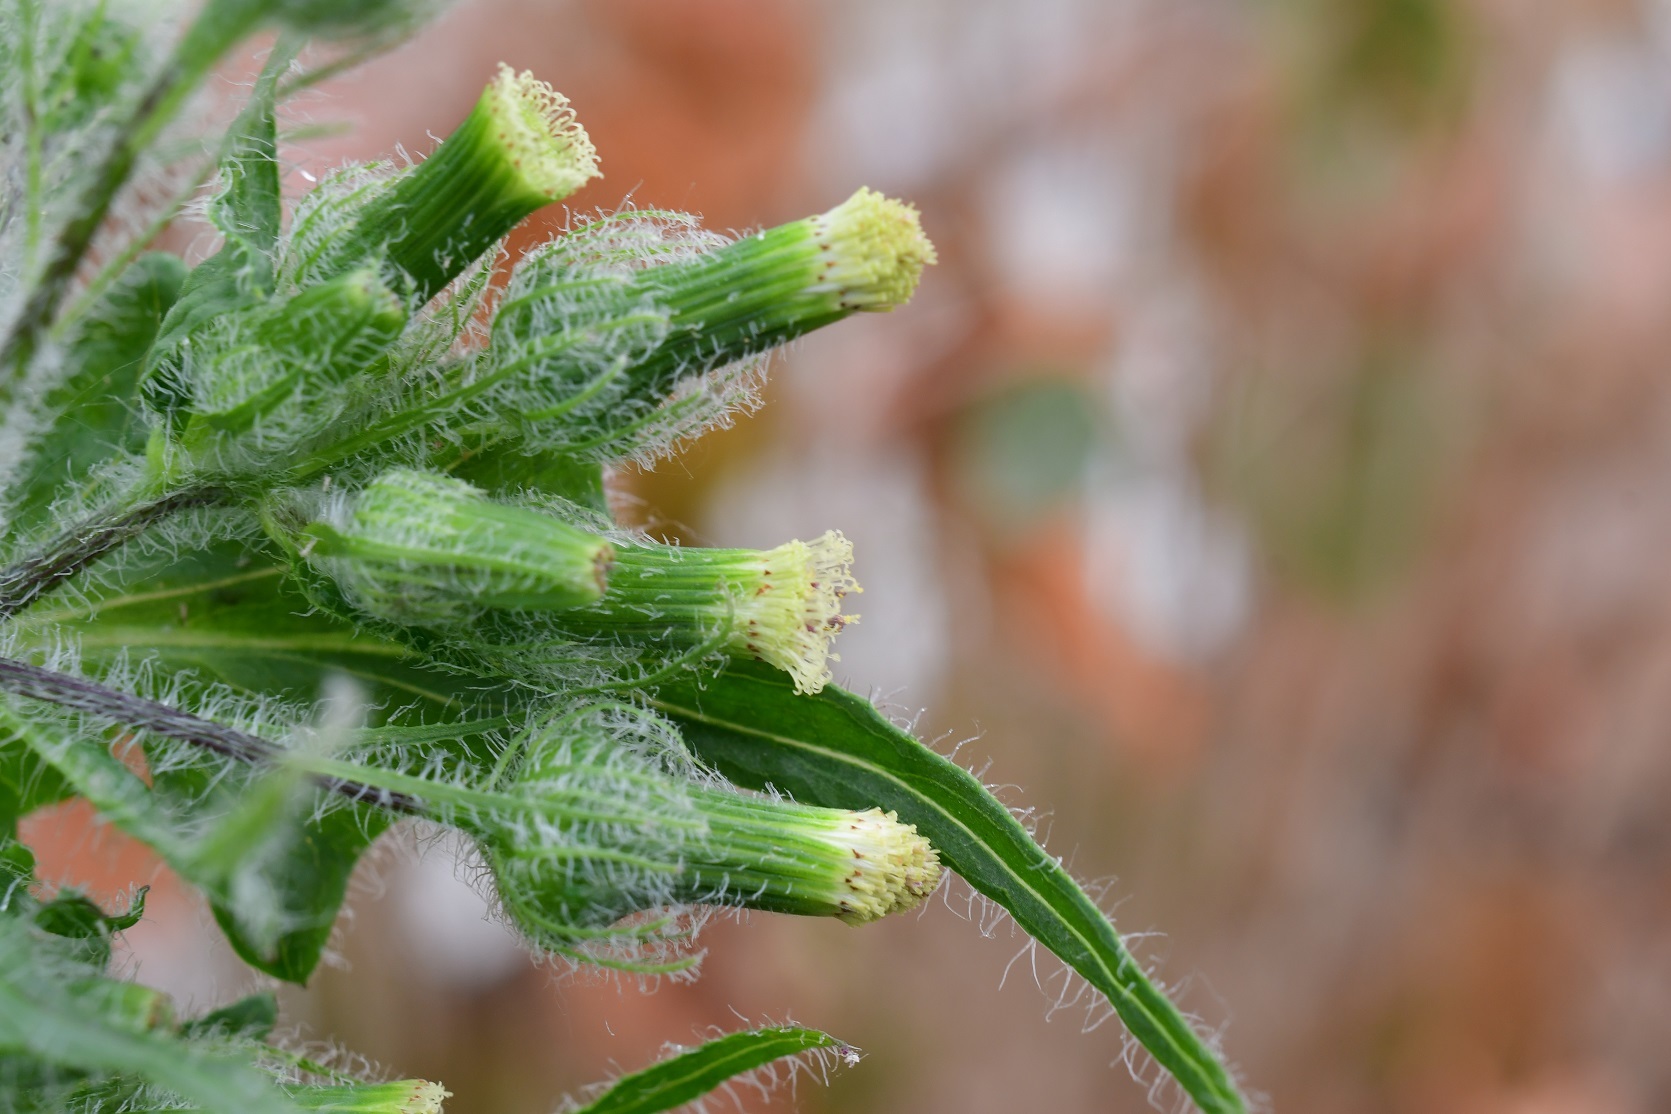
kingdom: Plantae
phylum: Tracheophyta
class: Magnoliopsida
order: Asterales
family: Asteraceae
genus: Erechtites
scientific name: Erechtites hieraciifolius
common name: American burnweed
